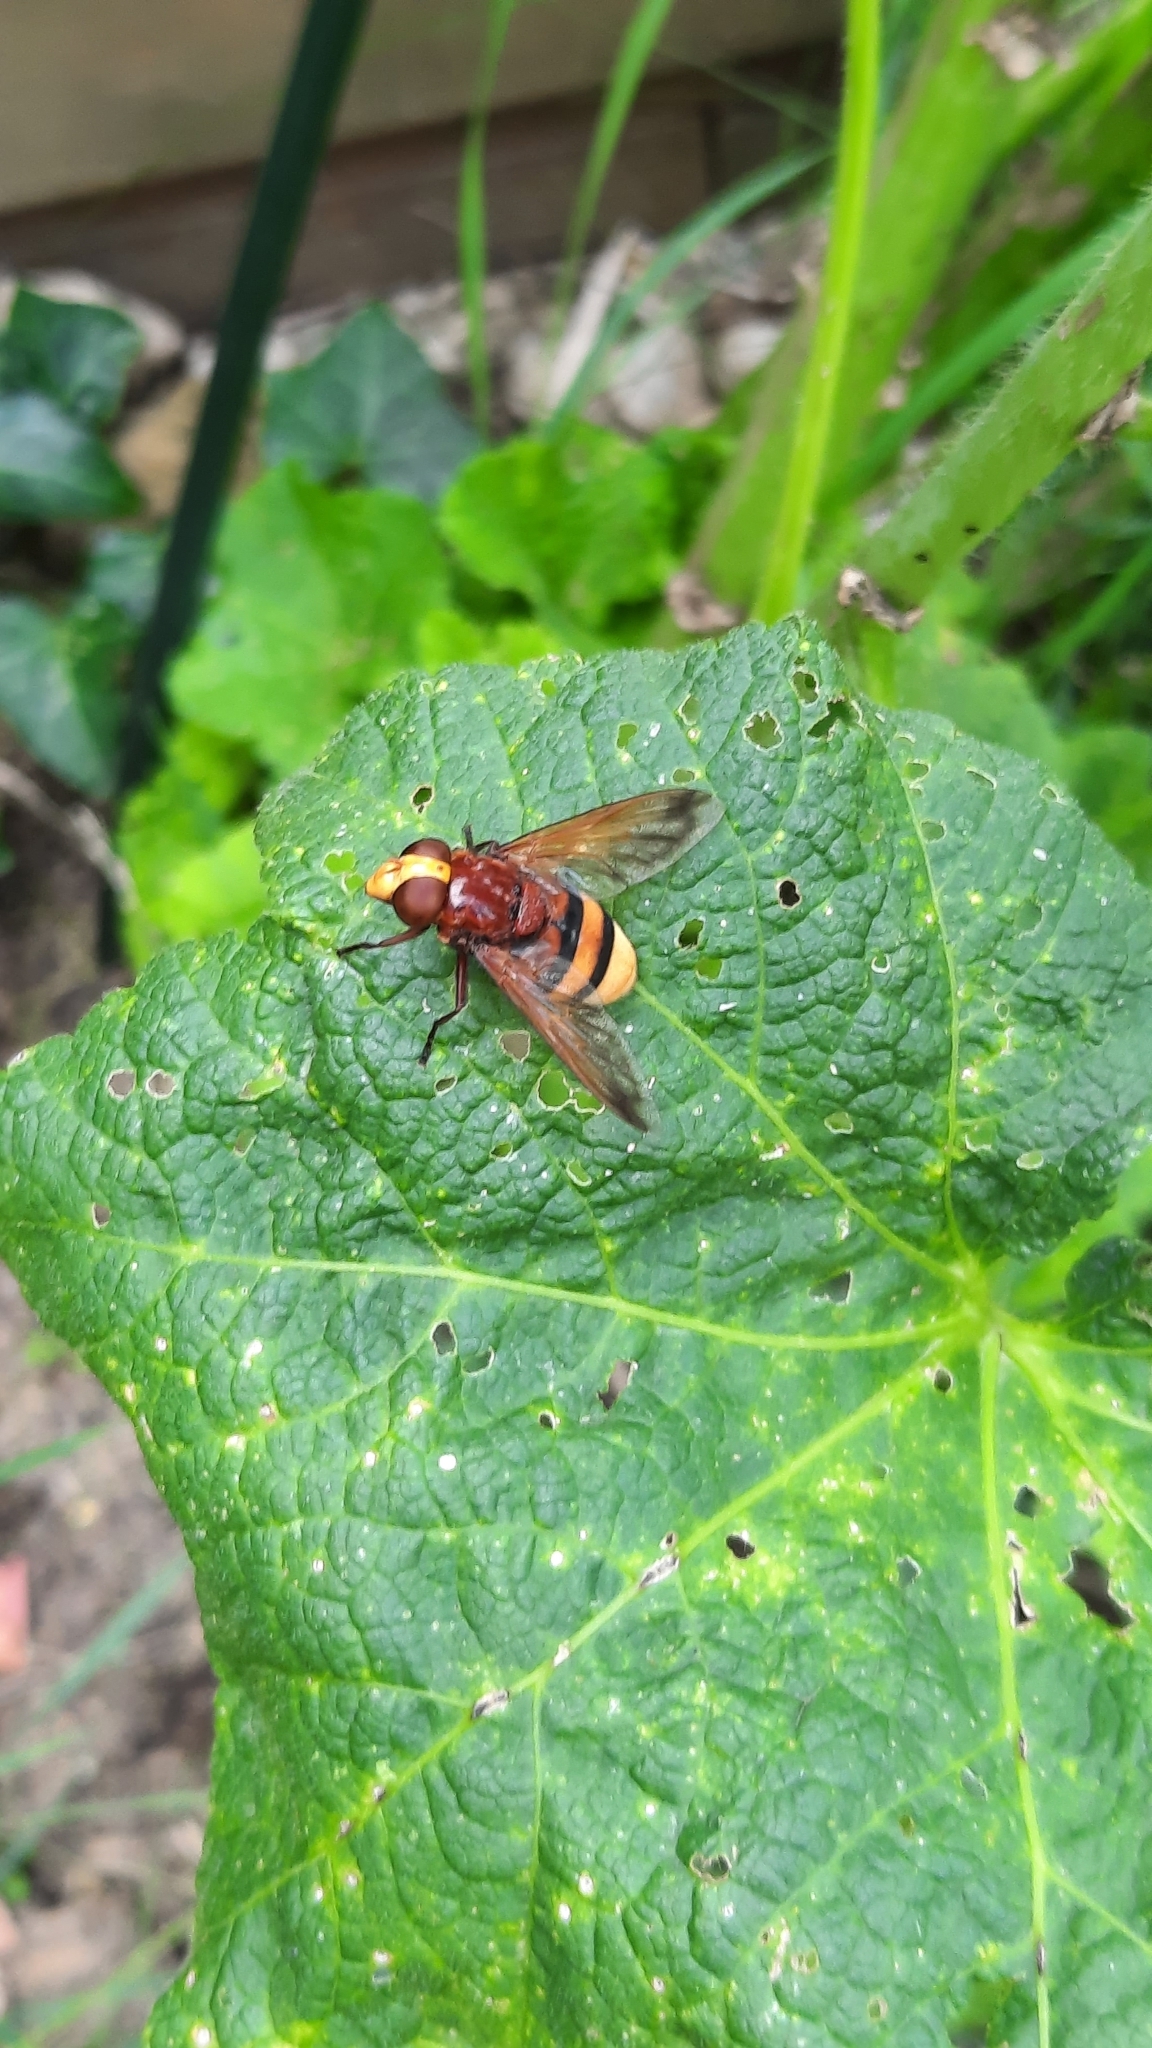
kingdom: Animalia
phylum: Arthropoda
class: Insecta
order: Diptera
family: Syrphidae
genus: Volucella
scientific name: Volucella zonaria
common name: Hornet hoverfly
